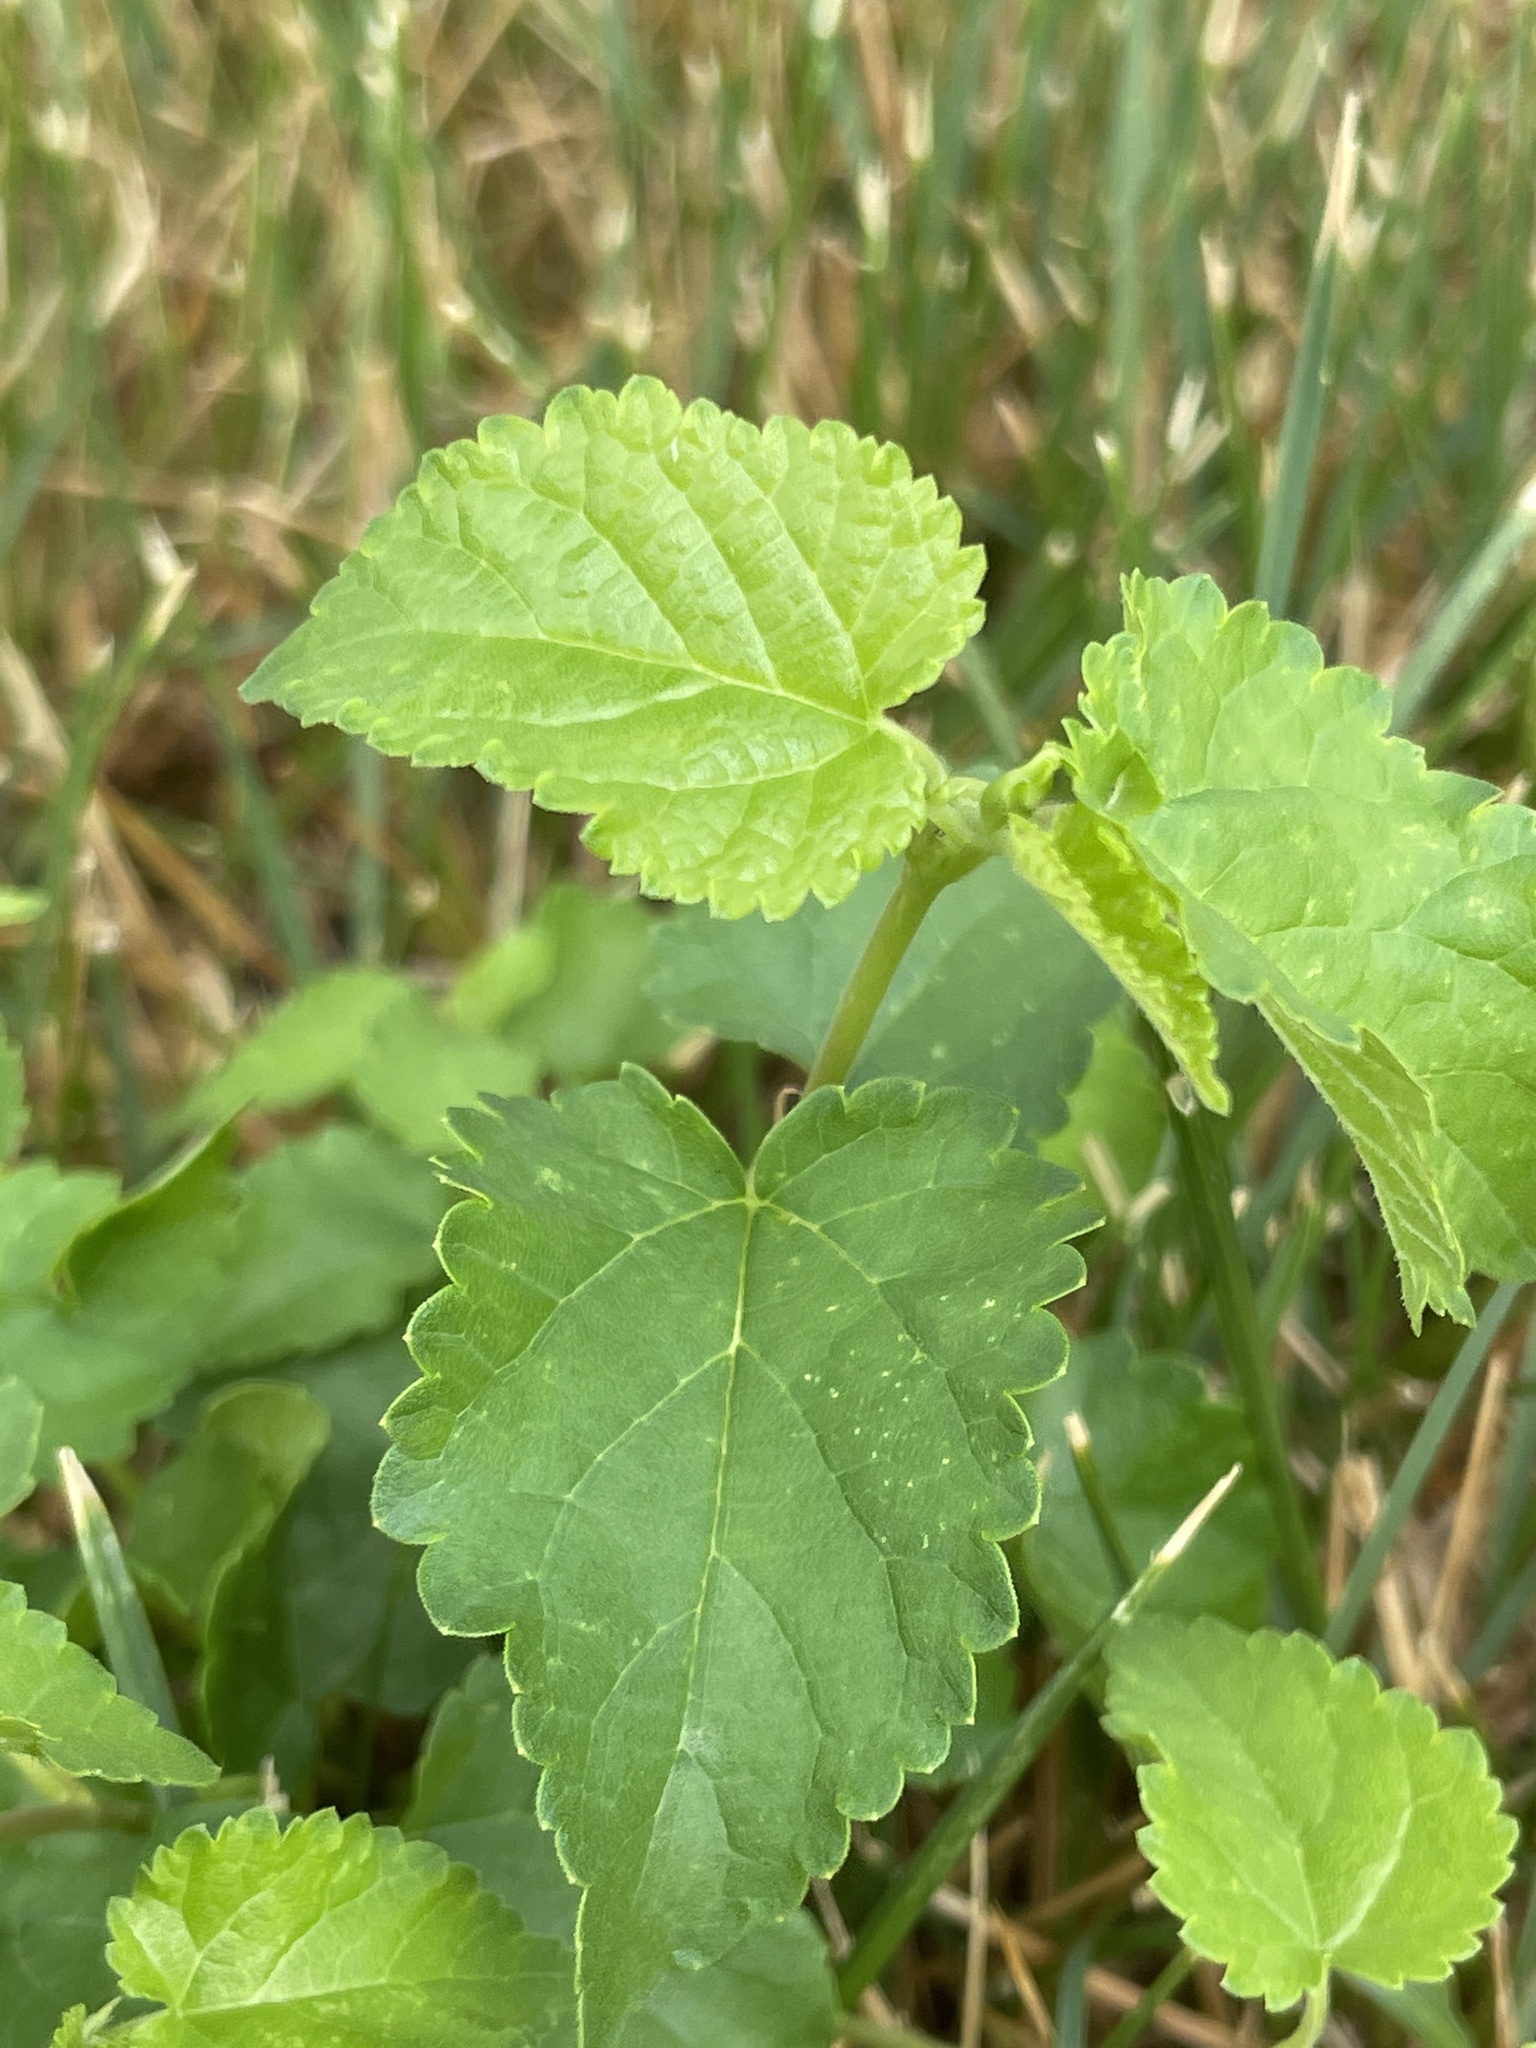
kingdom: Plantae
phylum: Tracheophyta
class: Magnoliopsida
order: Rosales
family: Moraceae
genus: Morus
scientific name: Morus alba
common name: White mulberry
